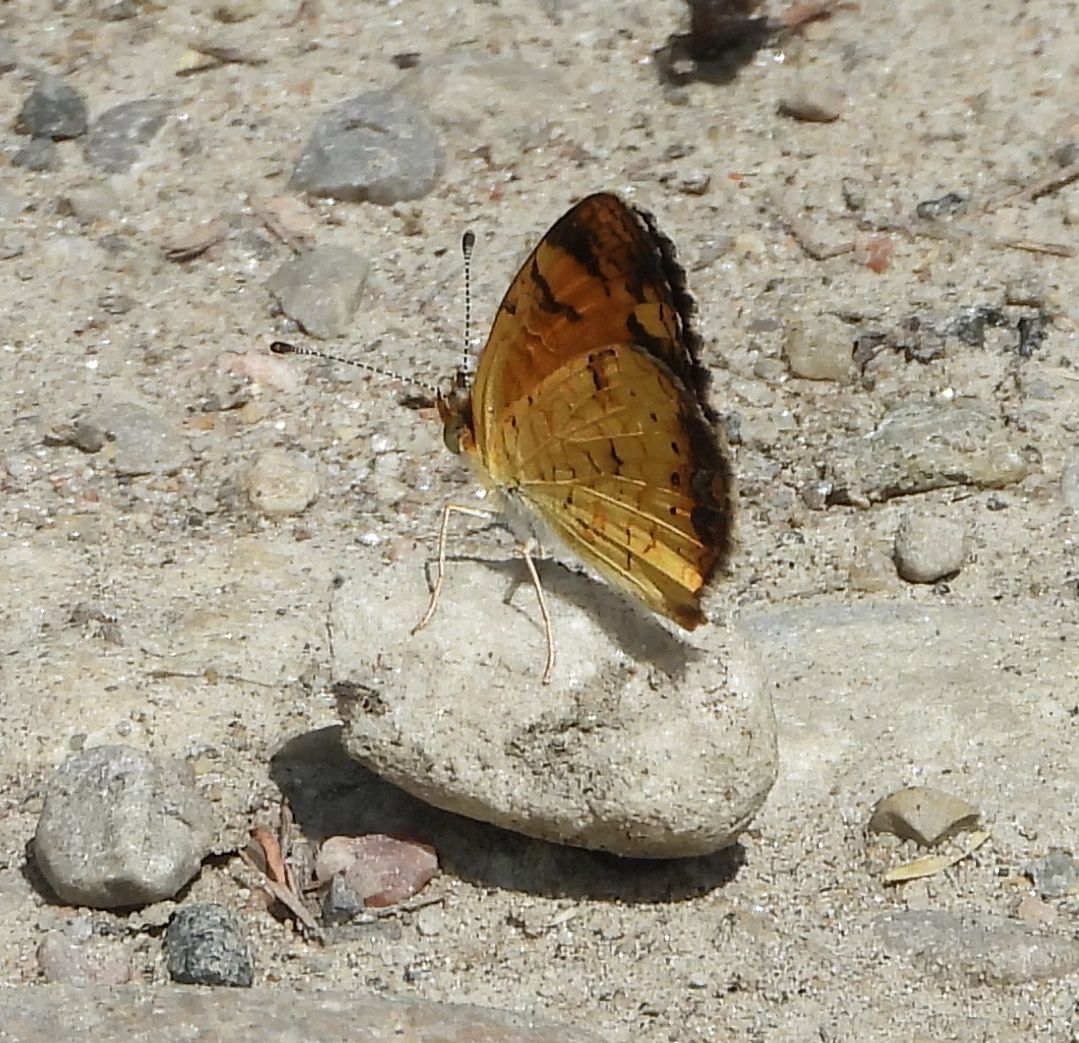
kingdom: Animalia
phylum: Arthropoda
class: Insecta
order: Lepidoptera
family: Nymphalidae
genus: Phyciodes
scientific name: Phyciodes tharos
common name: Pearl crescent
